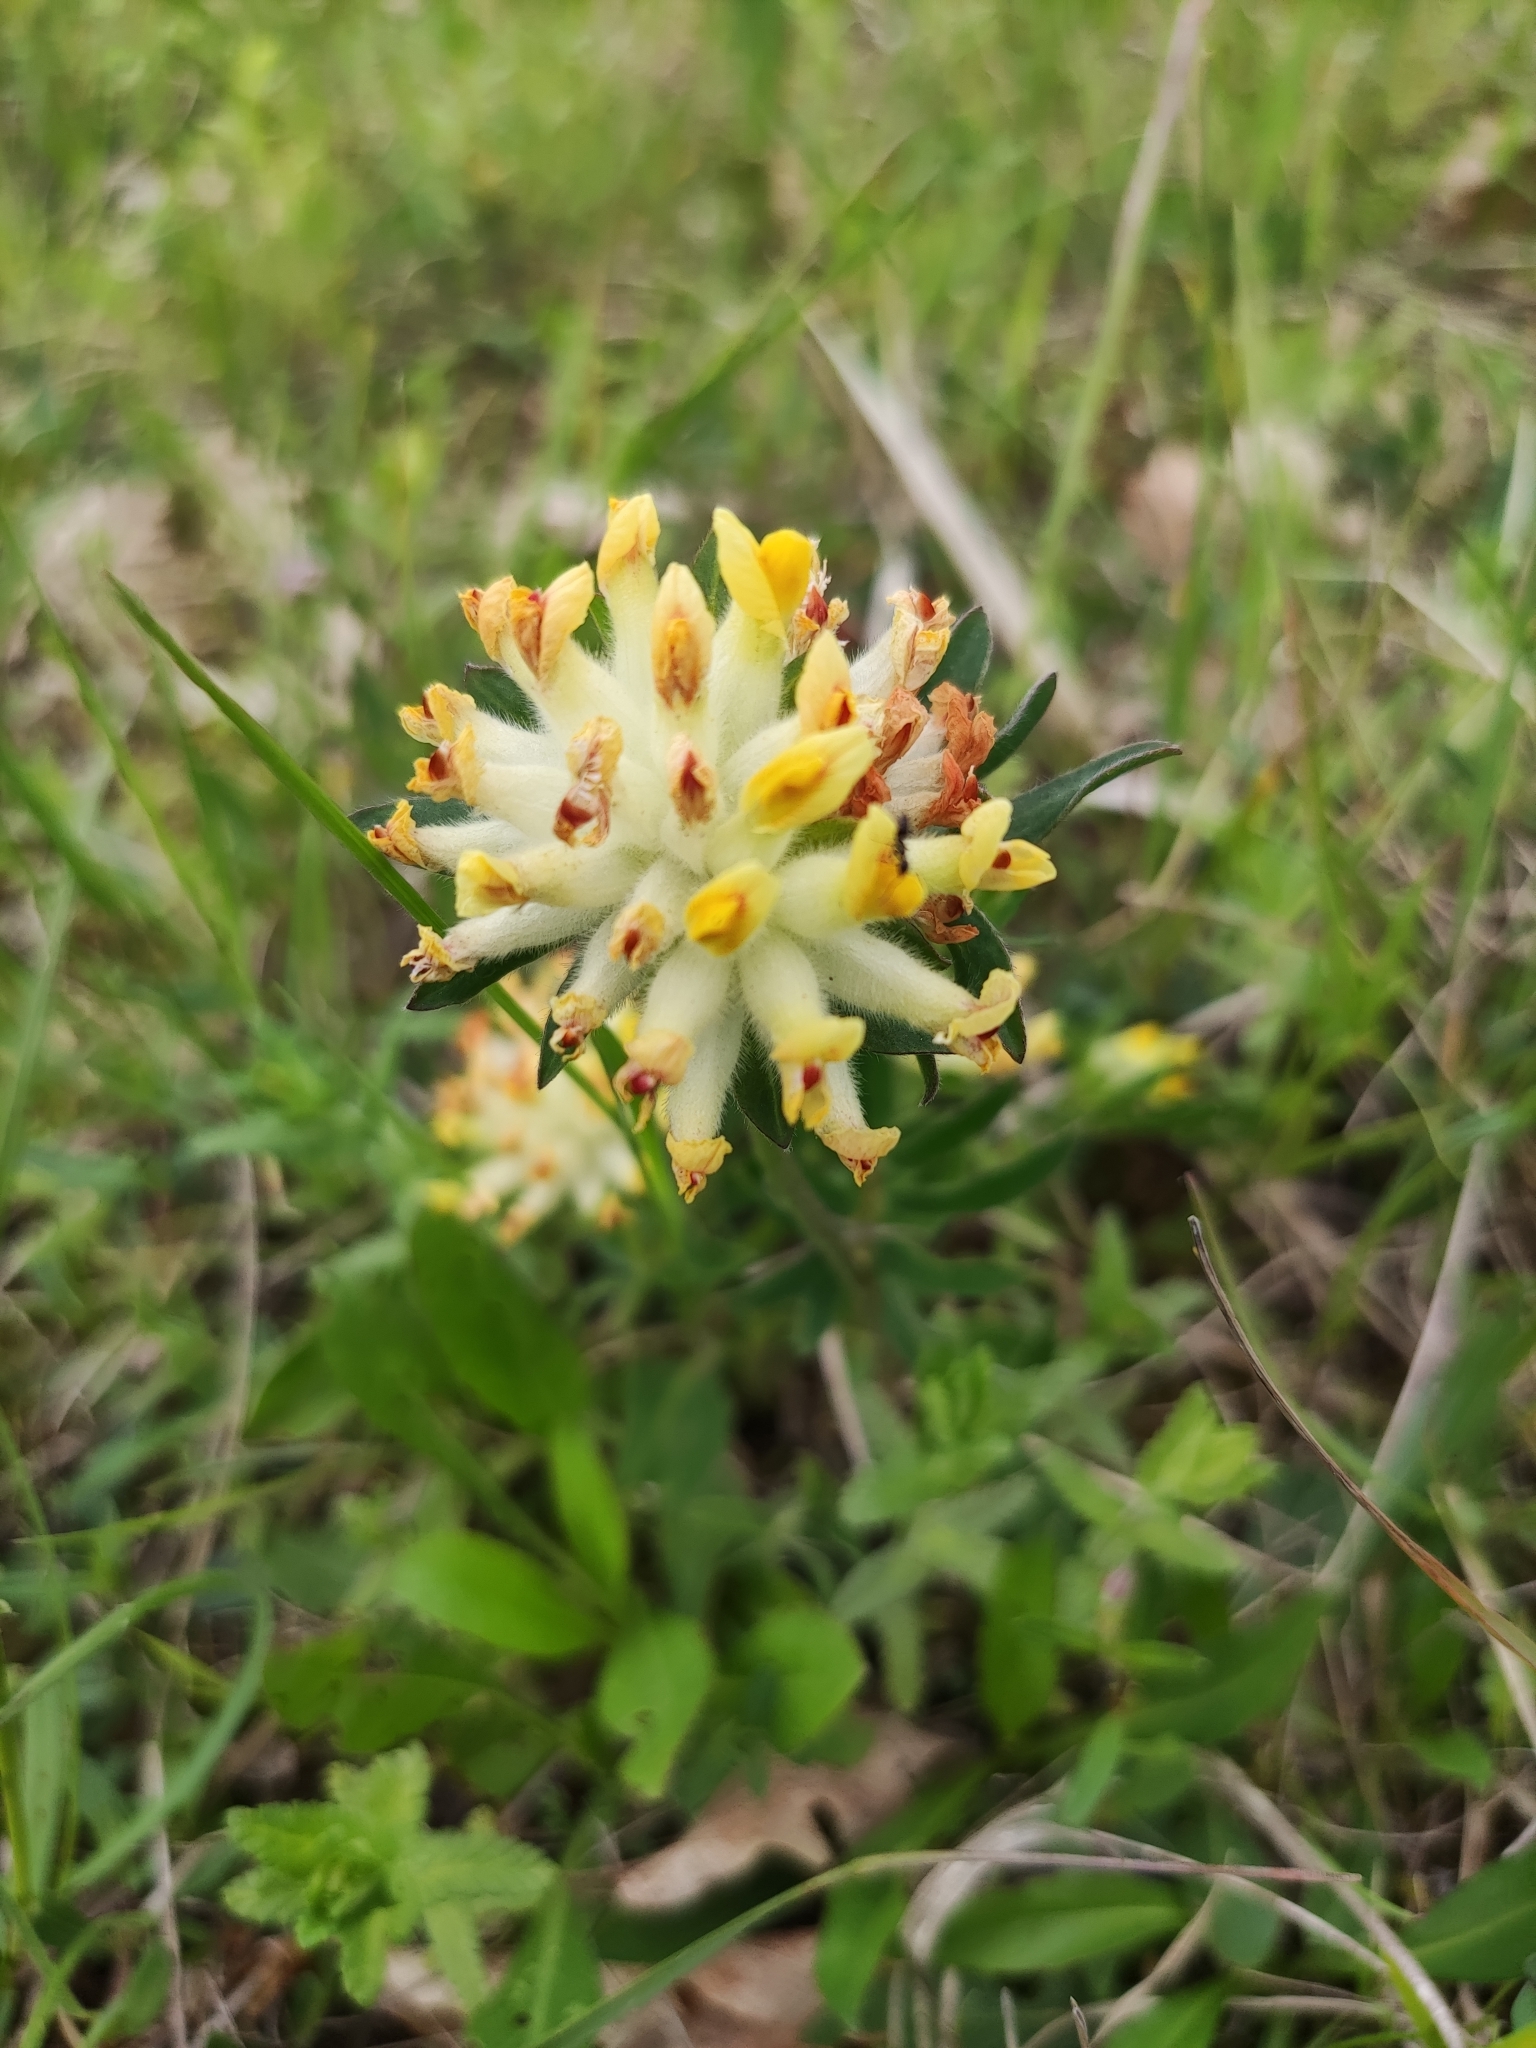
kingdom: Plantae
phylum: Tracheophyta
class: Magnoliopsida
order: Fabales
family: Fabaceae
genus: Anthyllis
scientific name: Anthyllis vulneraria
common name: Kidney vetch
